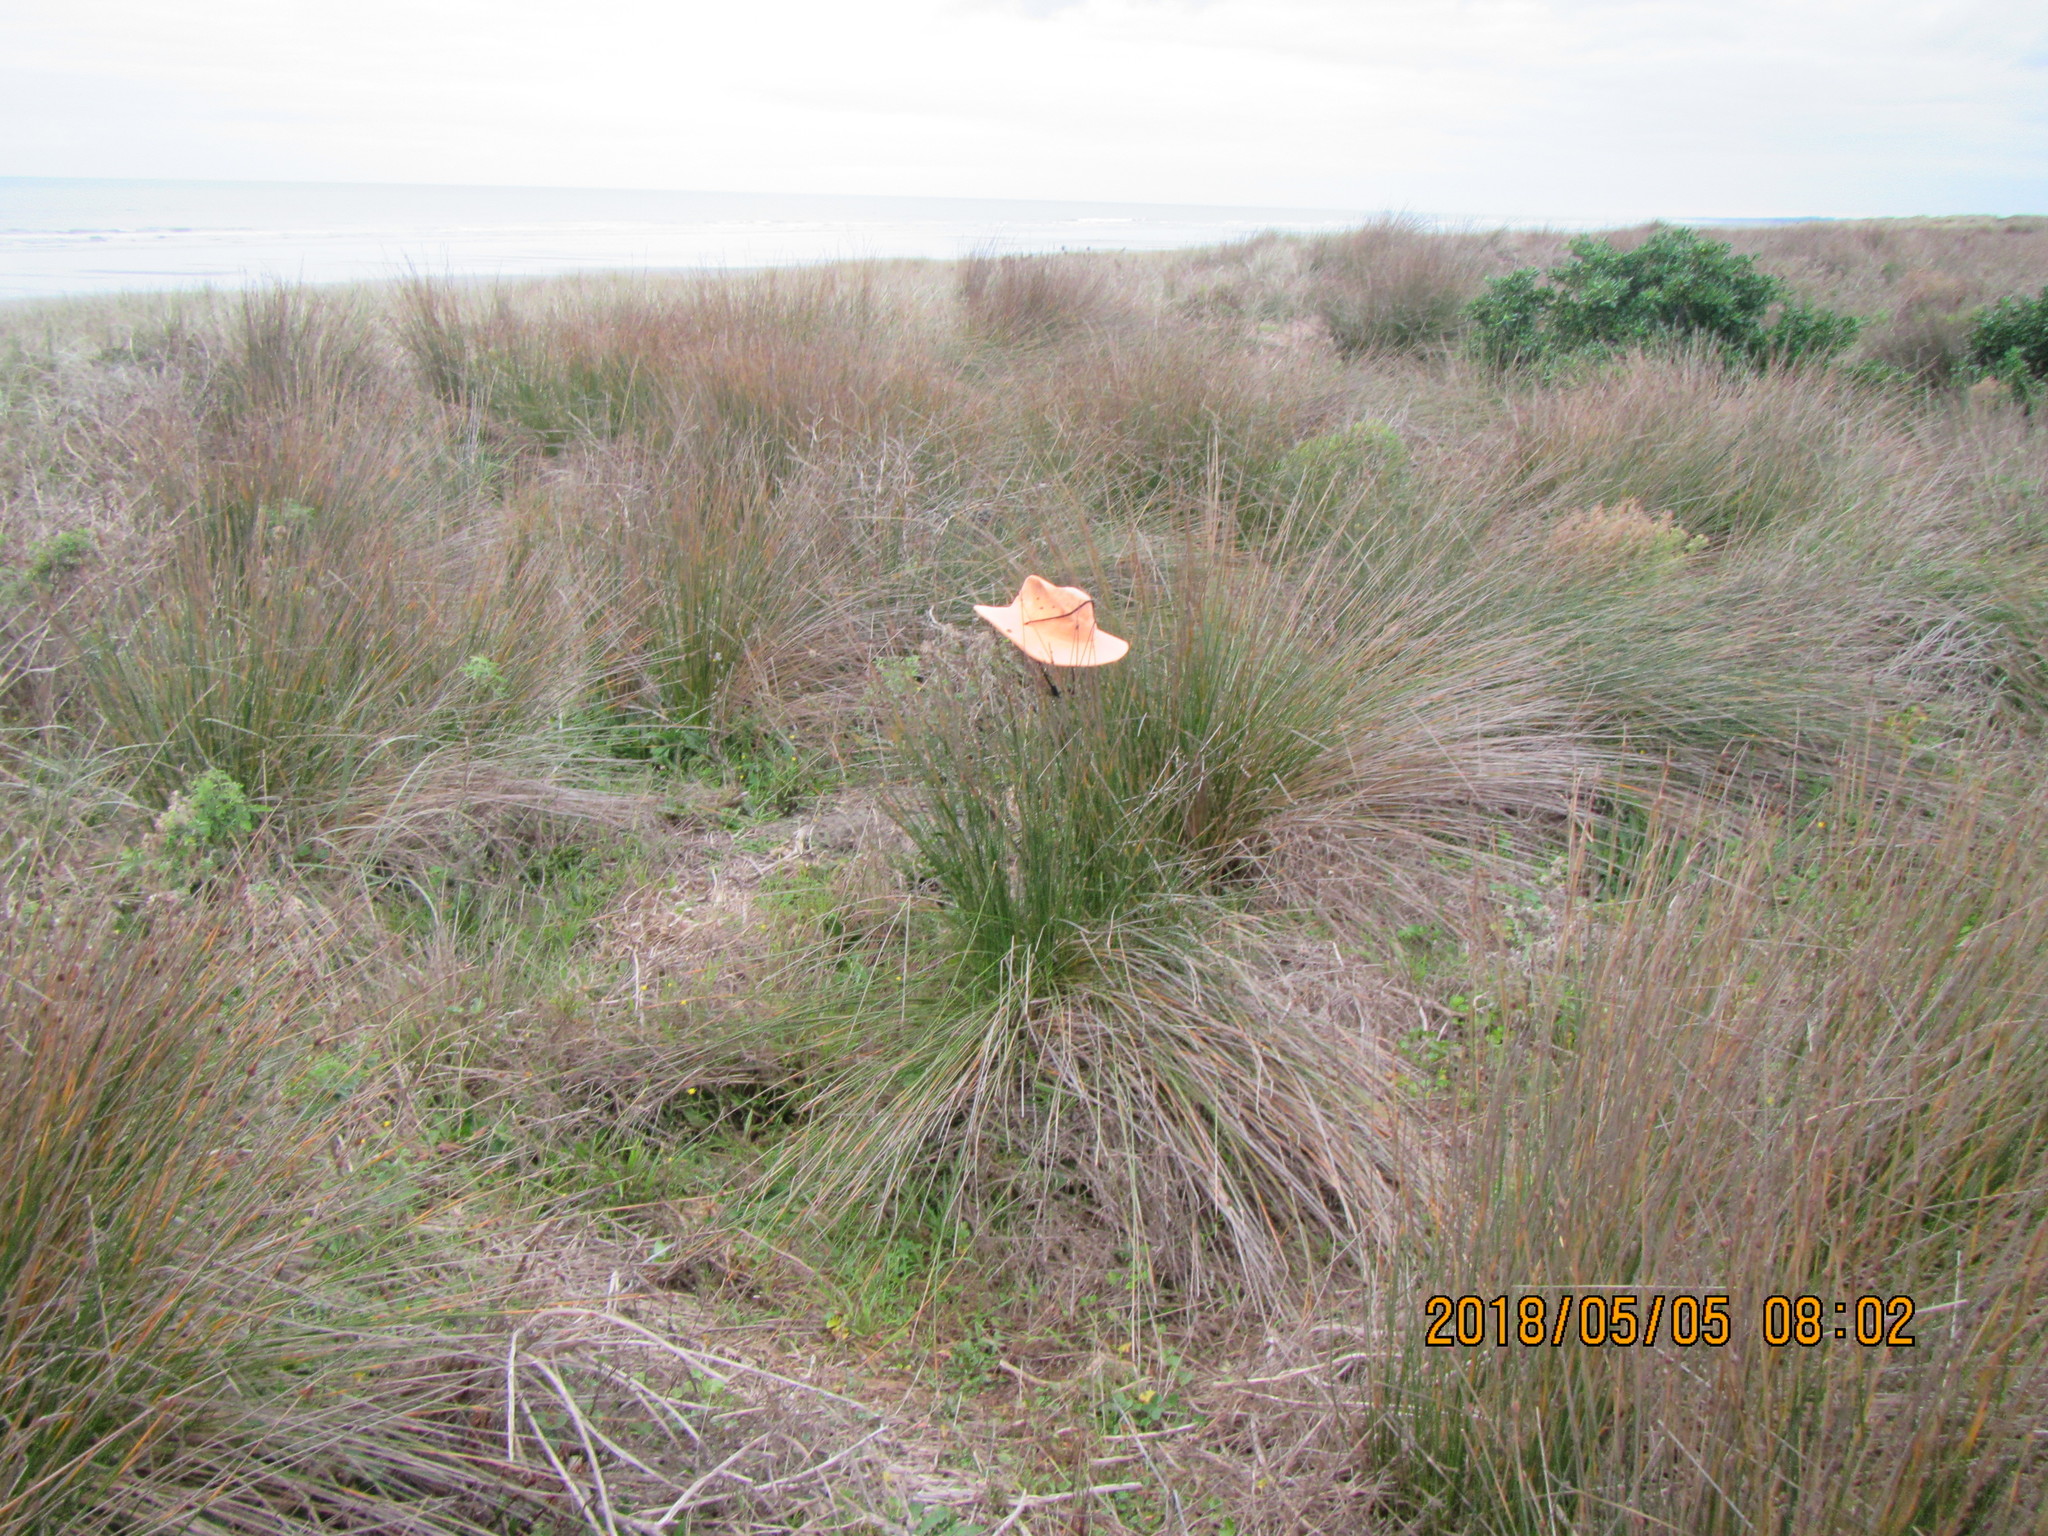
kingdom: Plantae
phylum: Tracheophyta
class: Liliopsida
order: Poales
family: Cyperaceae
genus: Ficinia
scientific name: Ficinia nodosa
